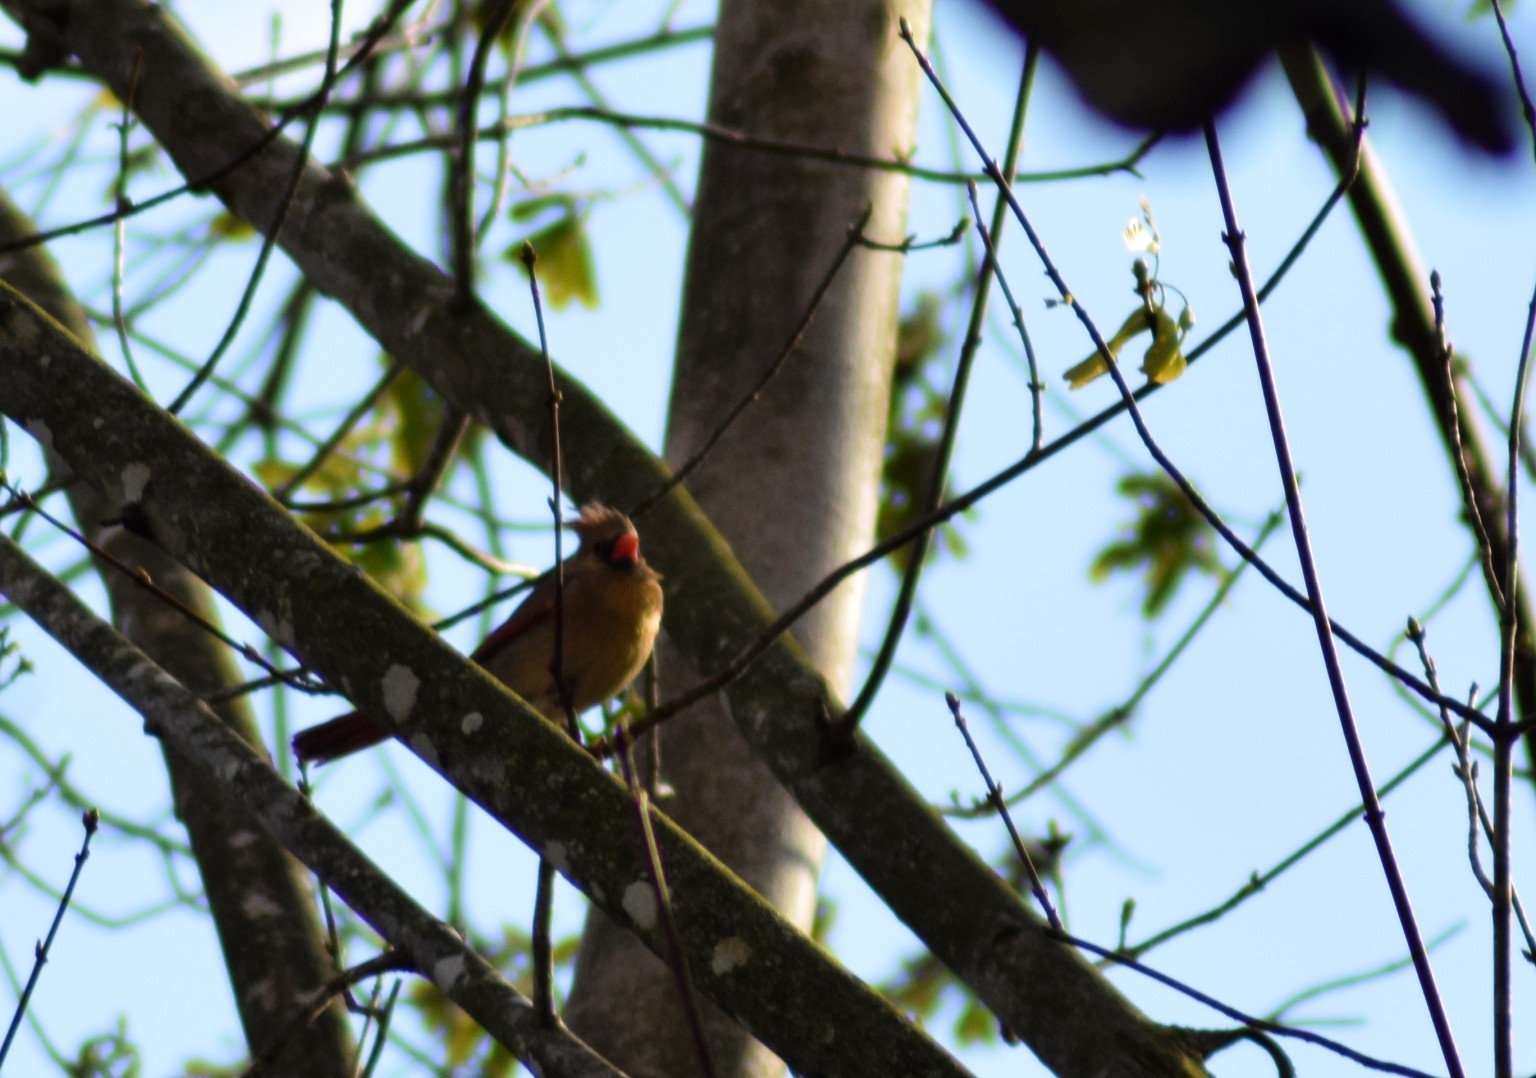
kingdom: Animalia
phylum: Chordata
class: Aves
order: Passeriformes
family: Cardinalidae
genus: Cardinalis
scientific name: Cardinalis cardinalis
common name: Northern cardinal
